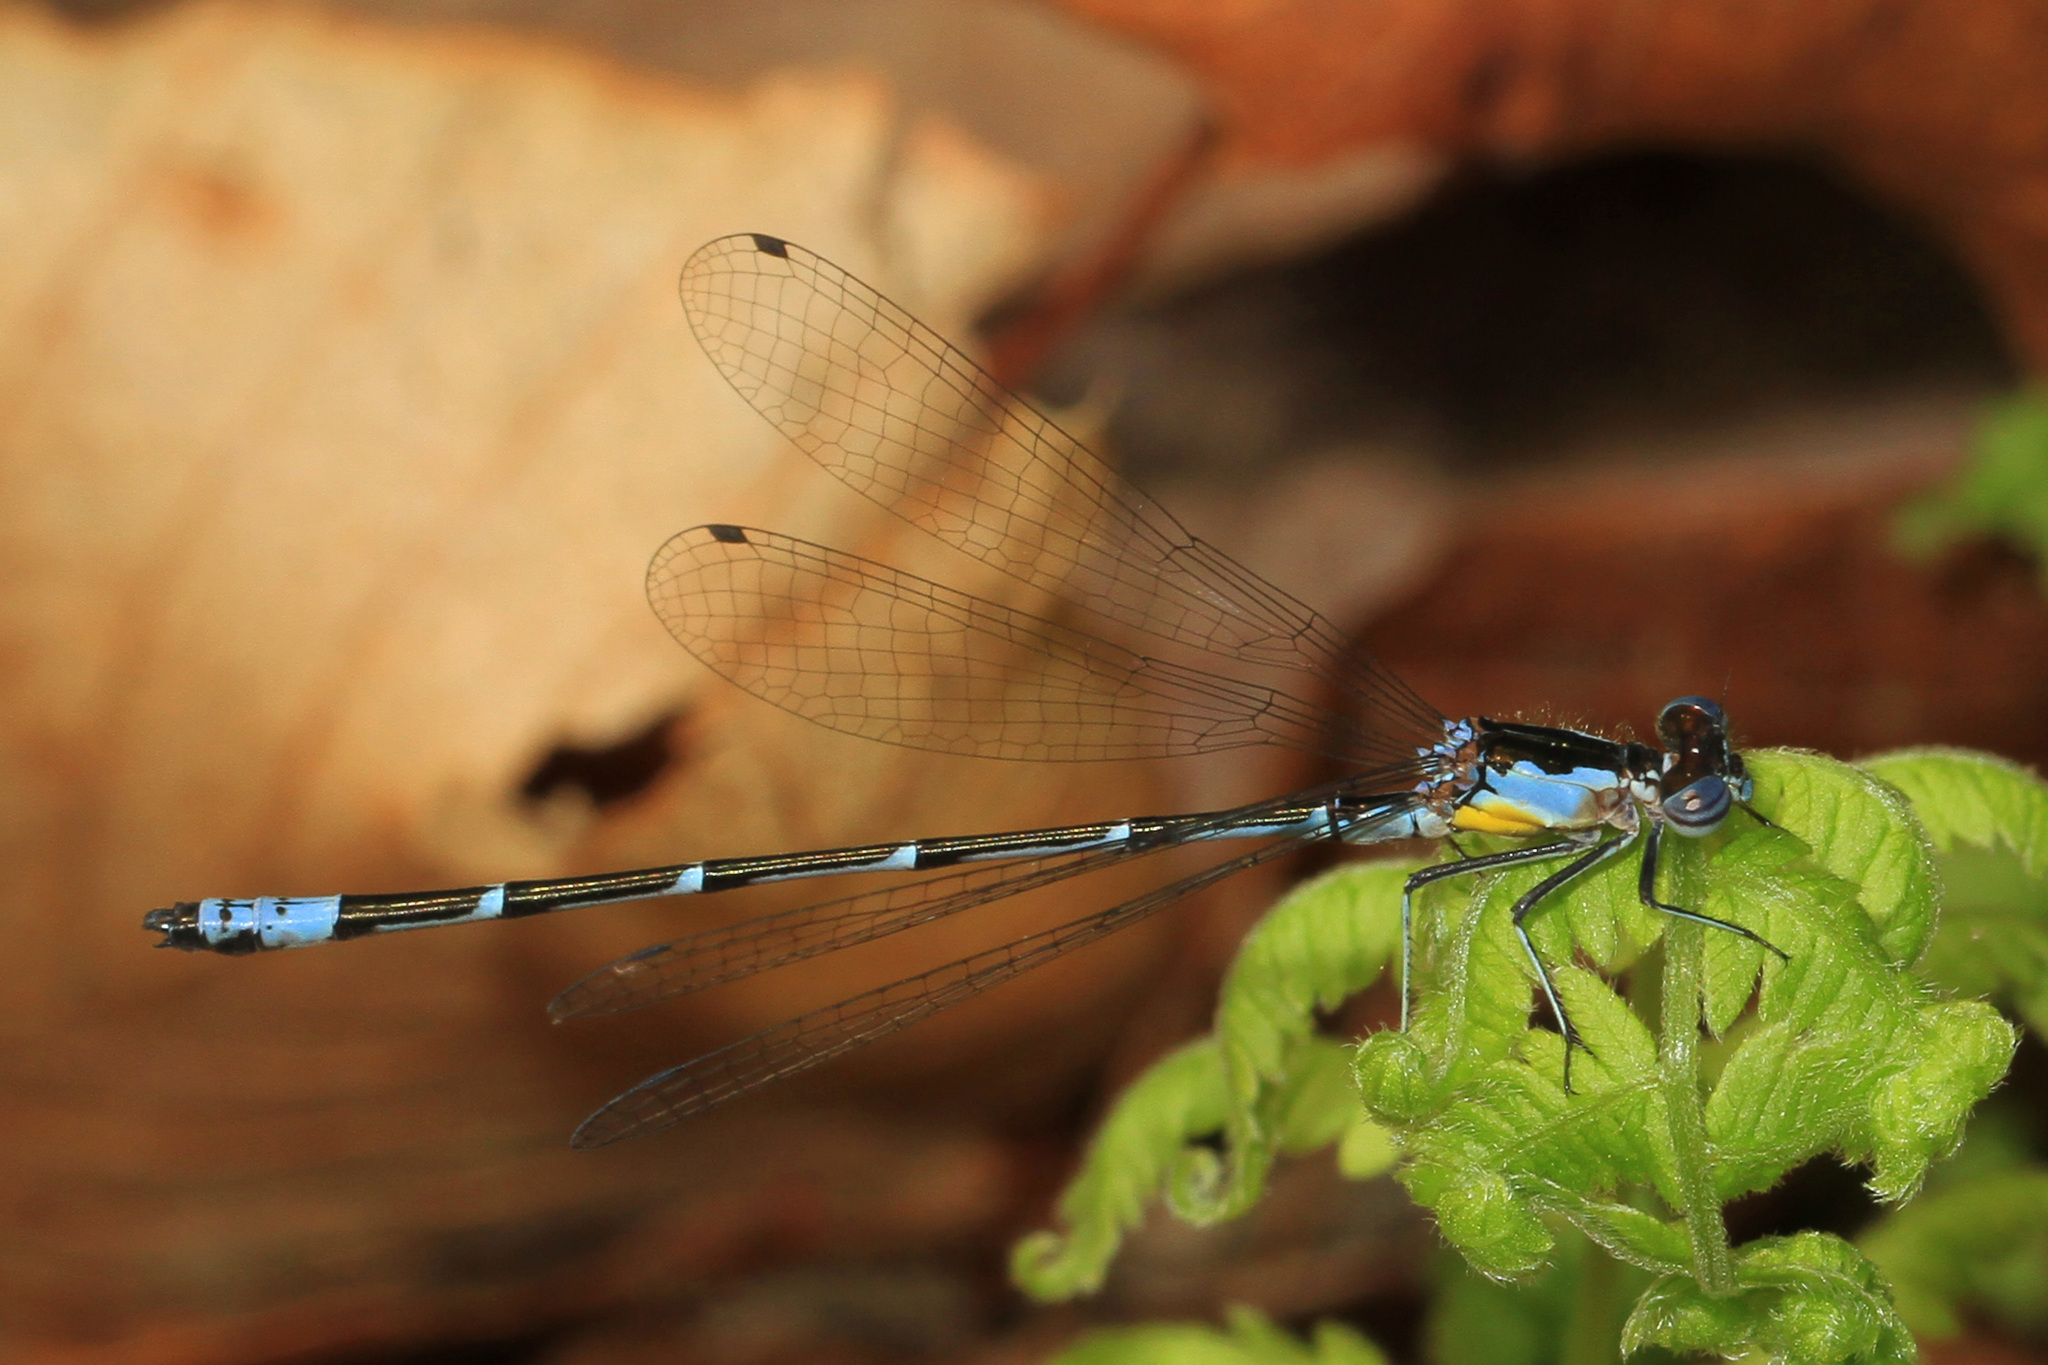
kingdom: Animalia
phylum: Arthropoda
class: Insecta
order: Odonata
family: Coenagrionidae
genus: Chromagrion
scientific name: Chromagrion conditum
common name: Aurora damsel
